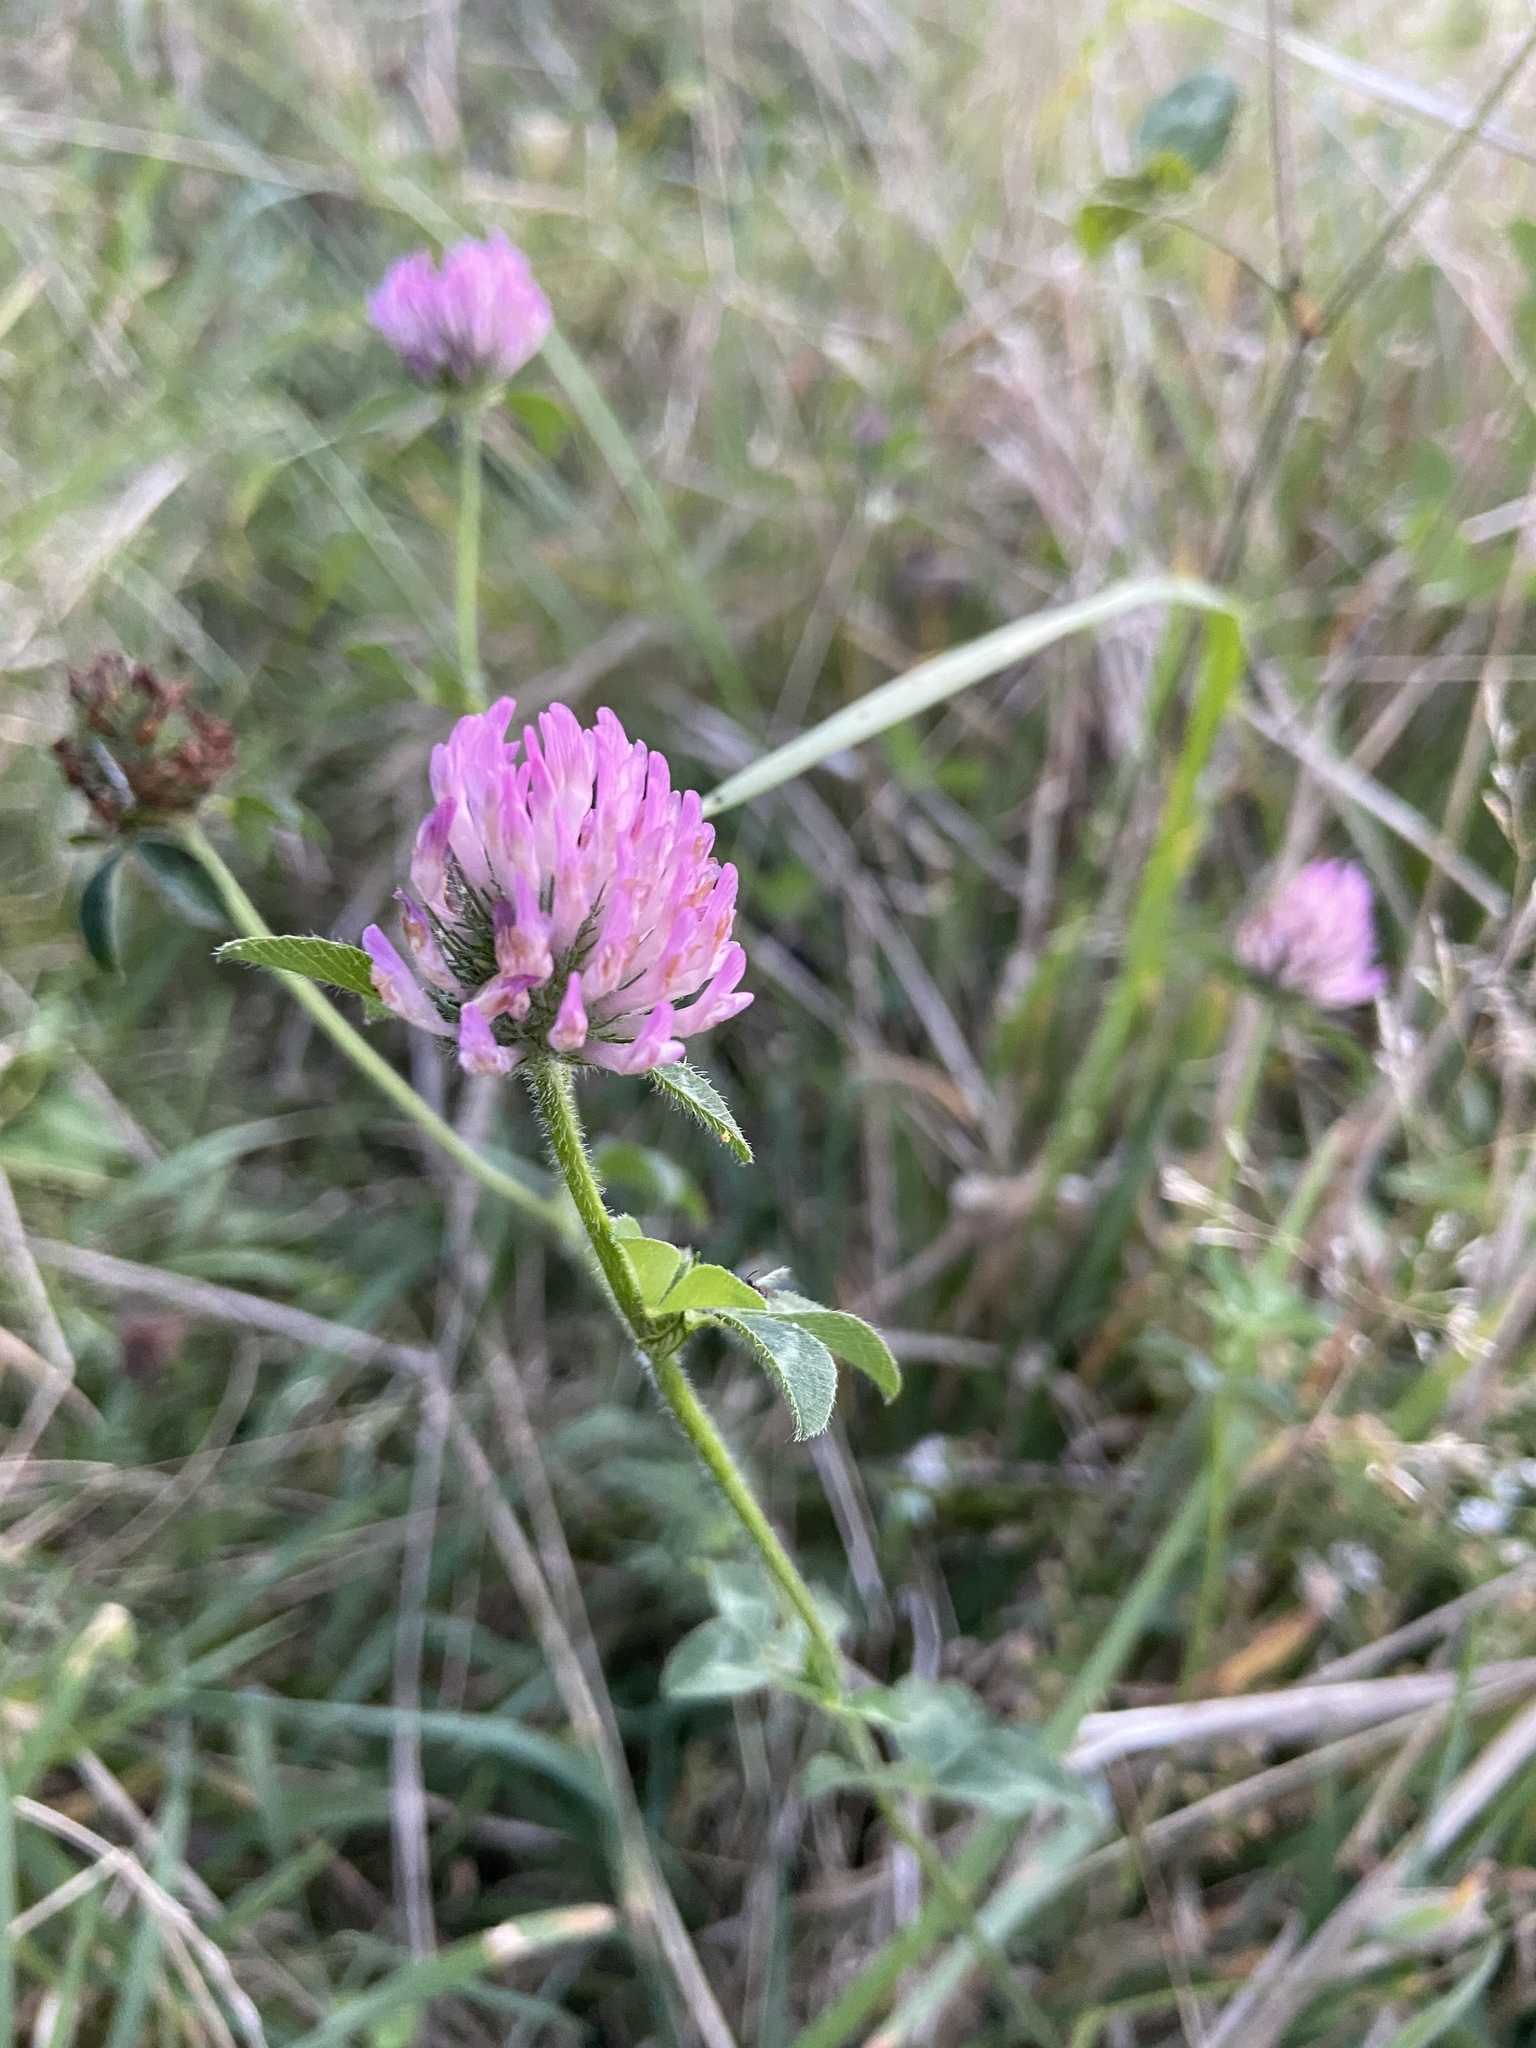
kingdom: Plantae
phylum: Tracheophyta
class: Magnoliopsida
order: Fabales
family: Fabaceae
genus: Trifolium
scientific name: Trifolium pratense
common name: Red clover
